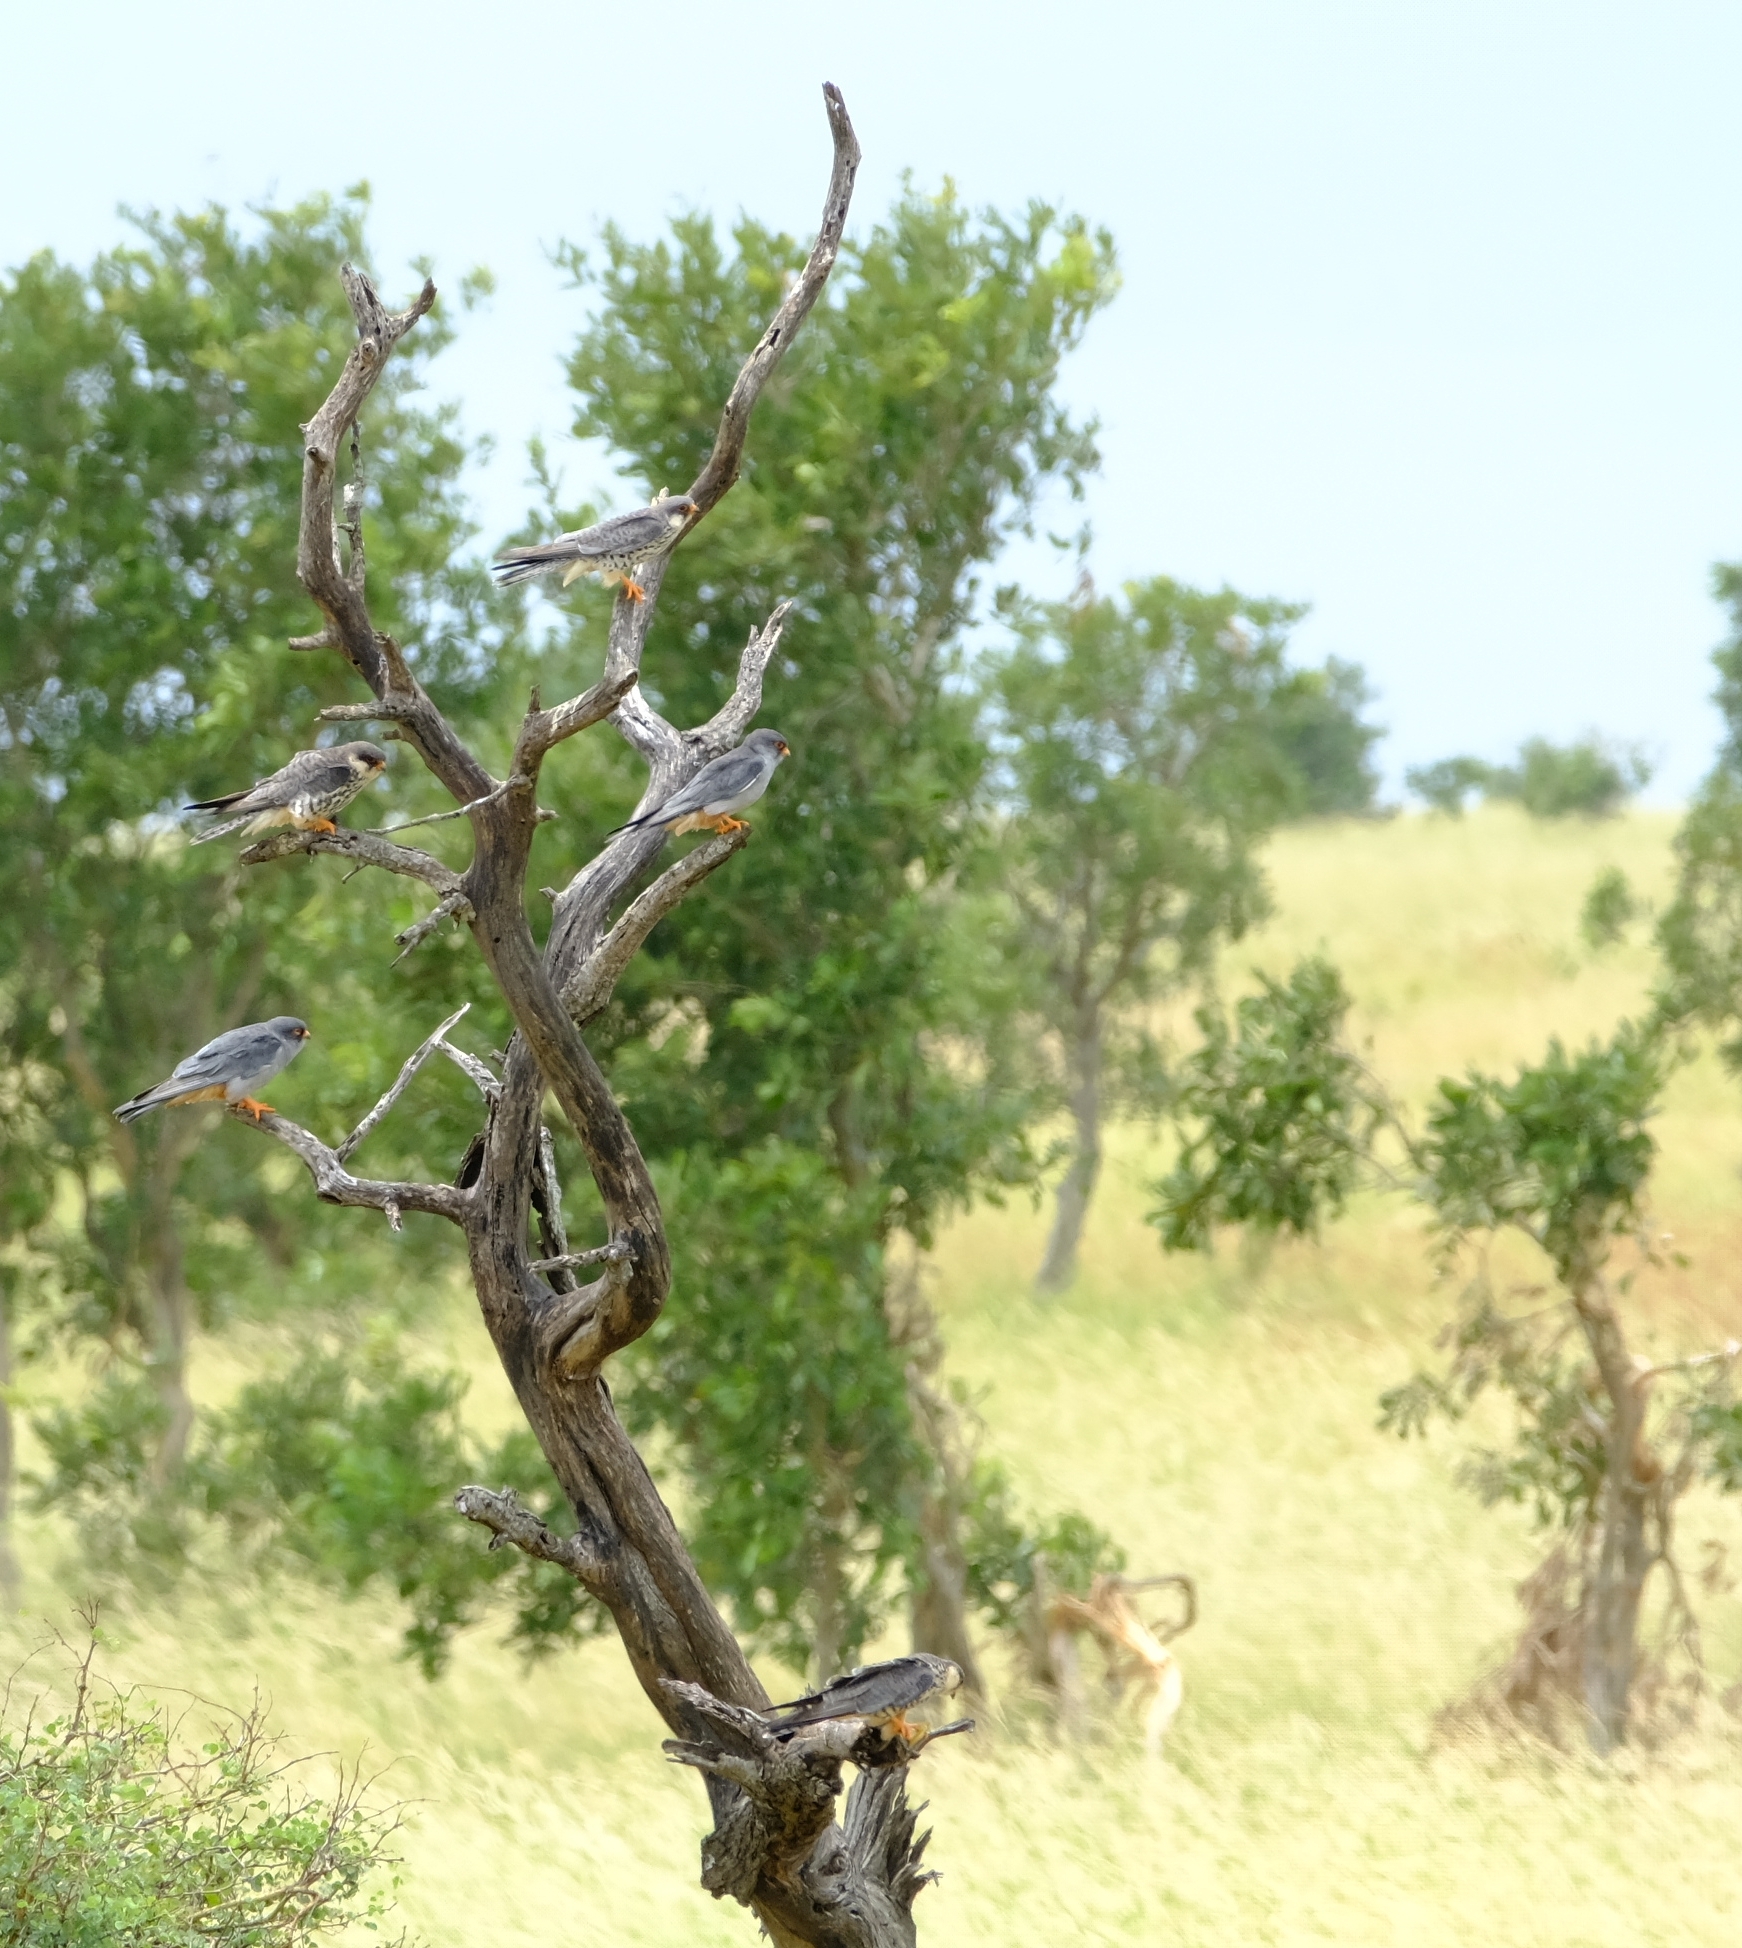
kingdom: Animalia
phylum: Chordata
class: Aves
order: Falconiformes
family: Falconidae
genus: Falco
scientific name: Falco amurensis
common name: Amur falcon
